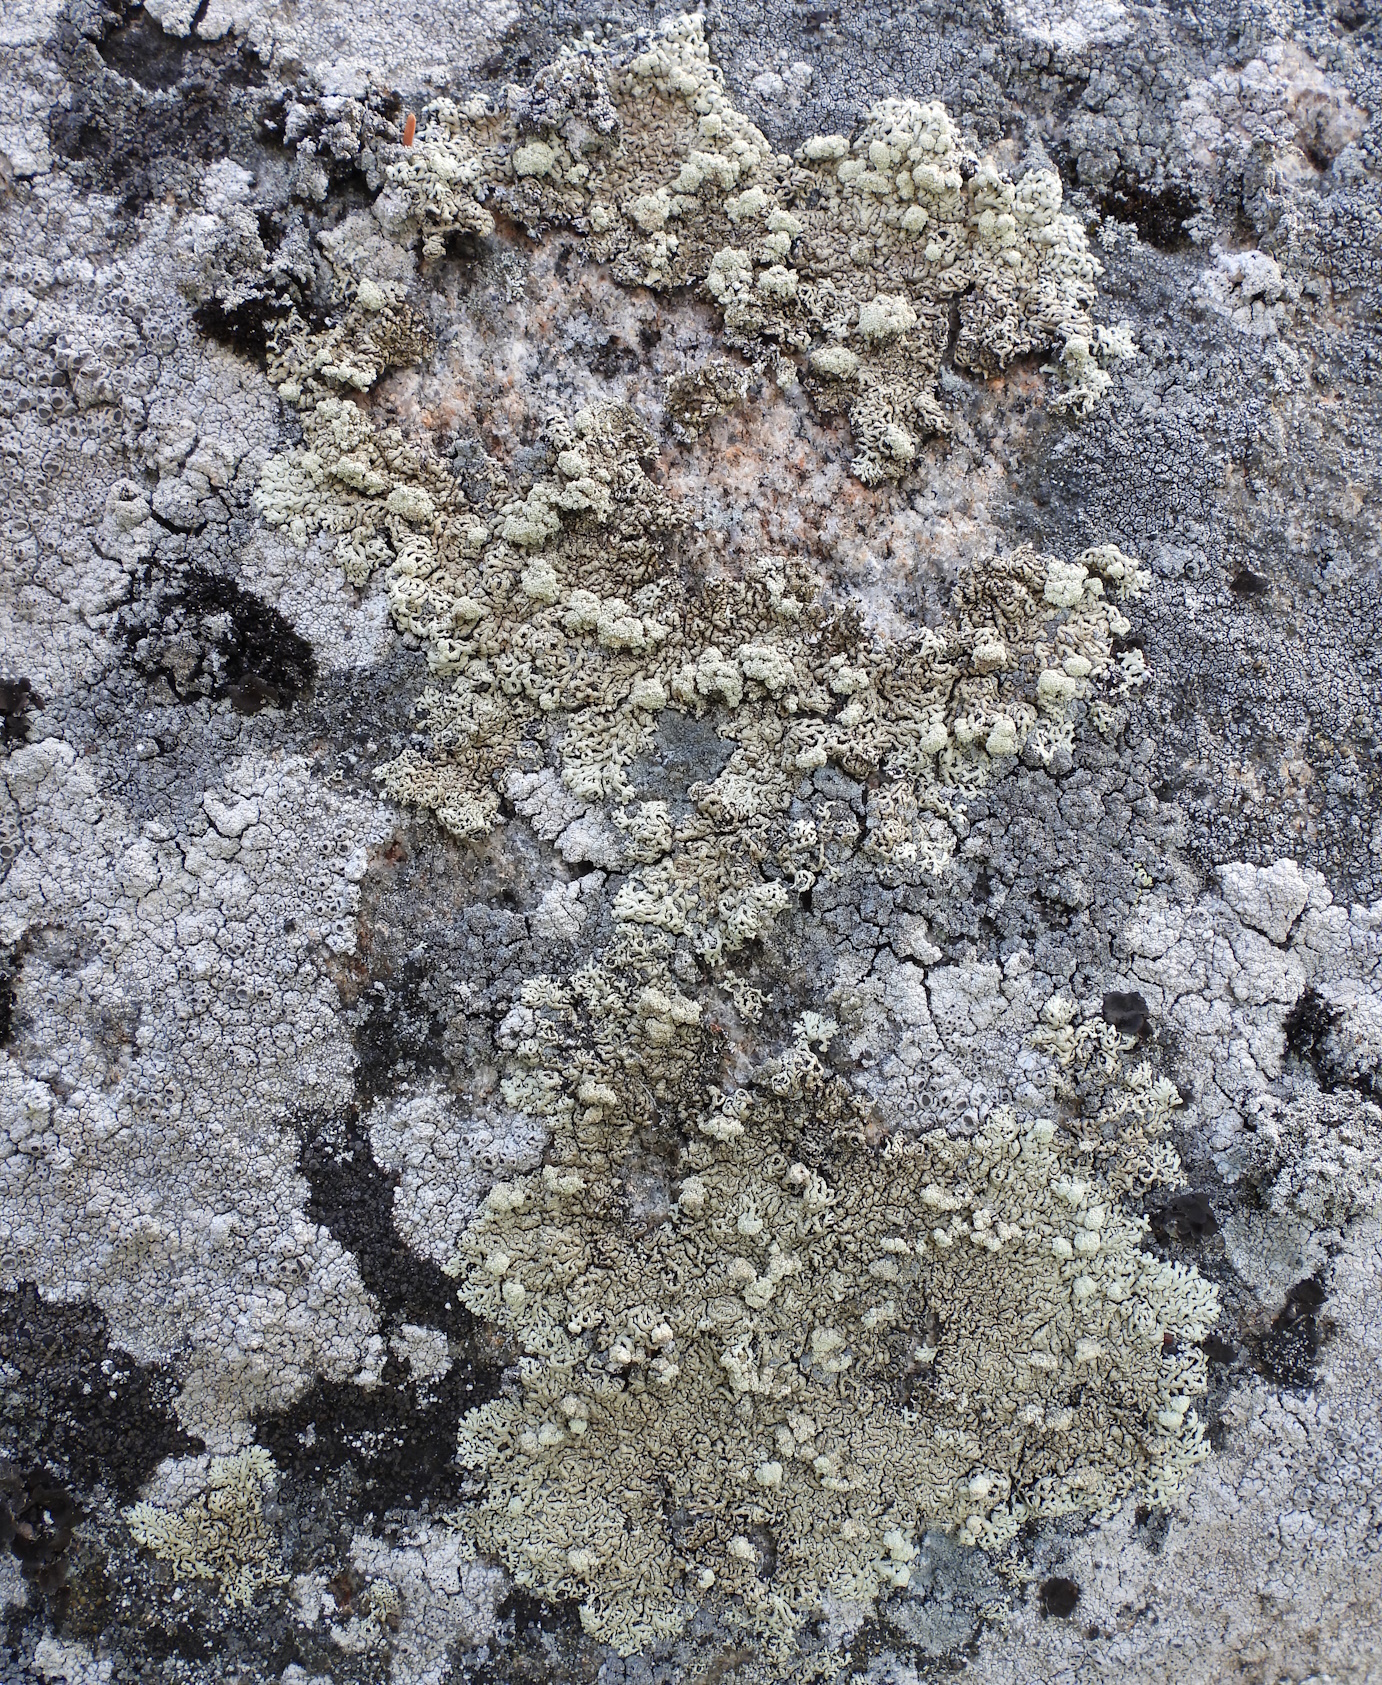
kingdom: Fungi
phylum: Ascomycota
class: Lecanoromycetes
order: Lecanorales
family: Parmeliaceae
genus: Arctoparmelia
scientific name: Arctoparmelia incurva
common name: Bent ring lichen
